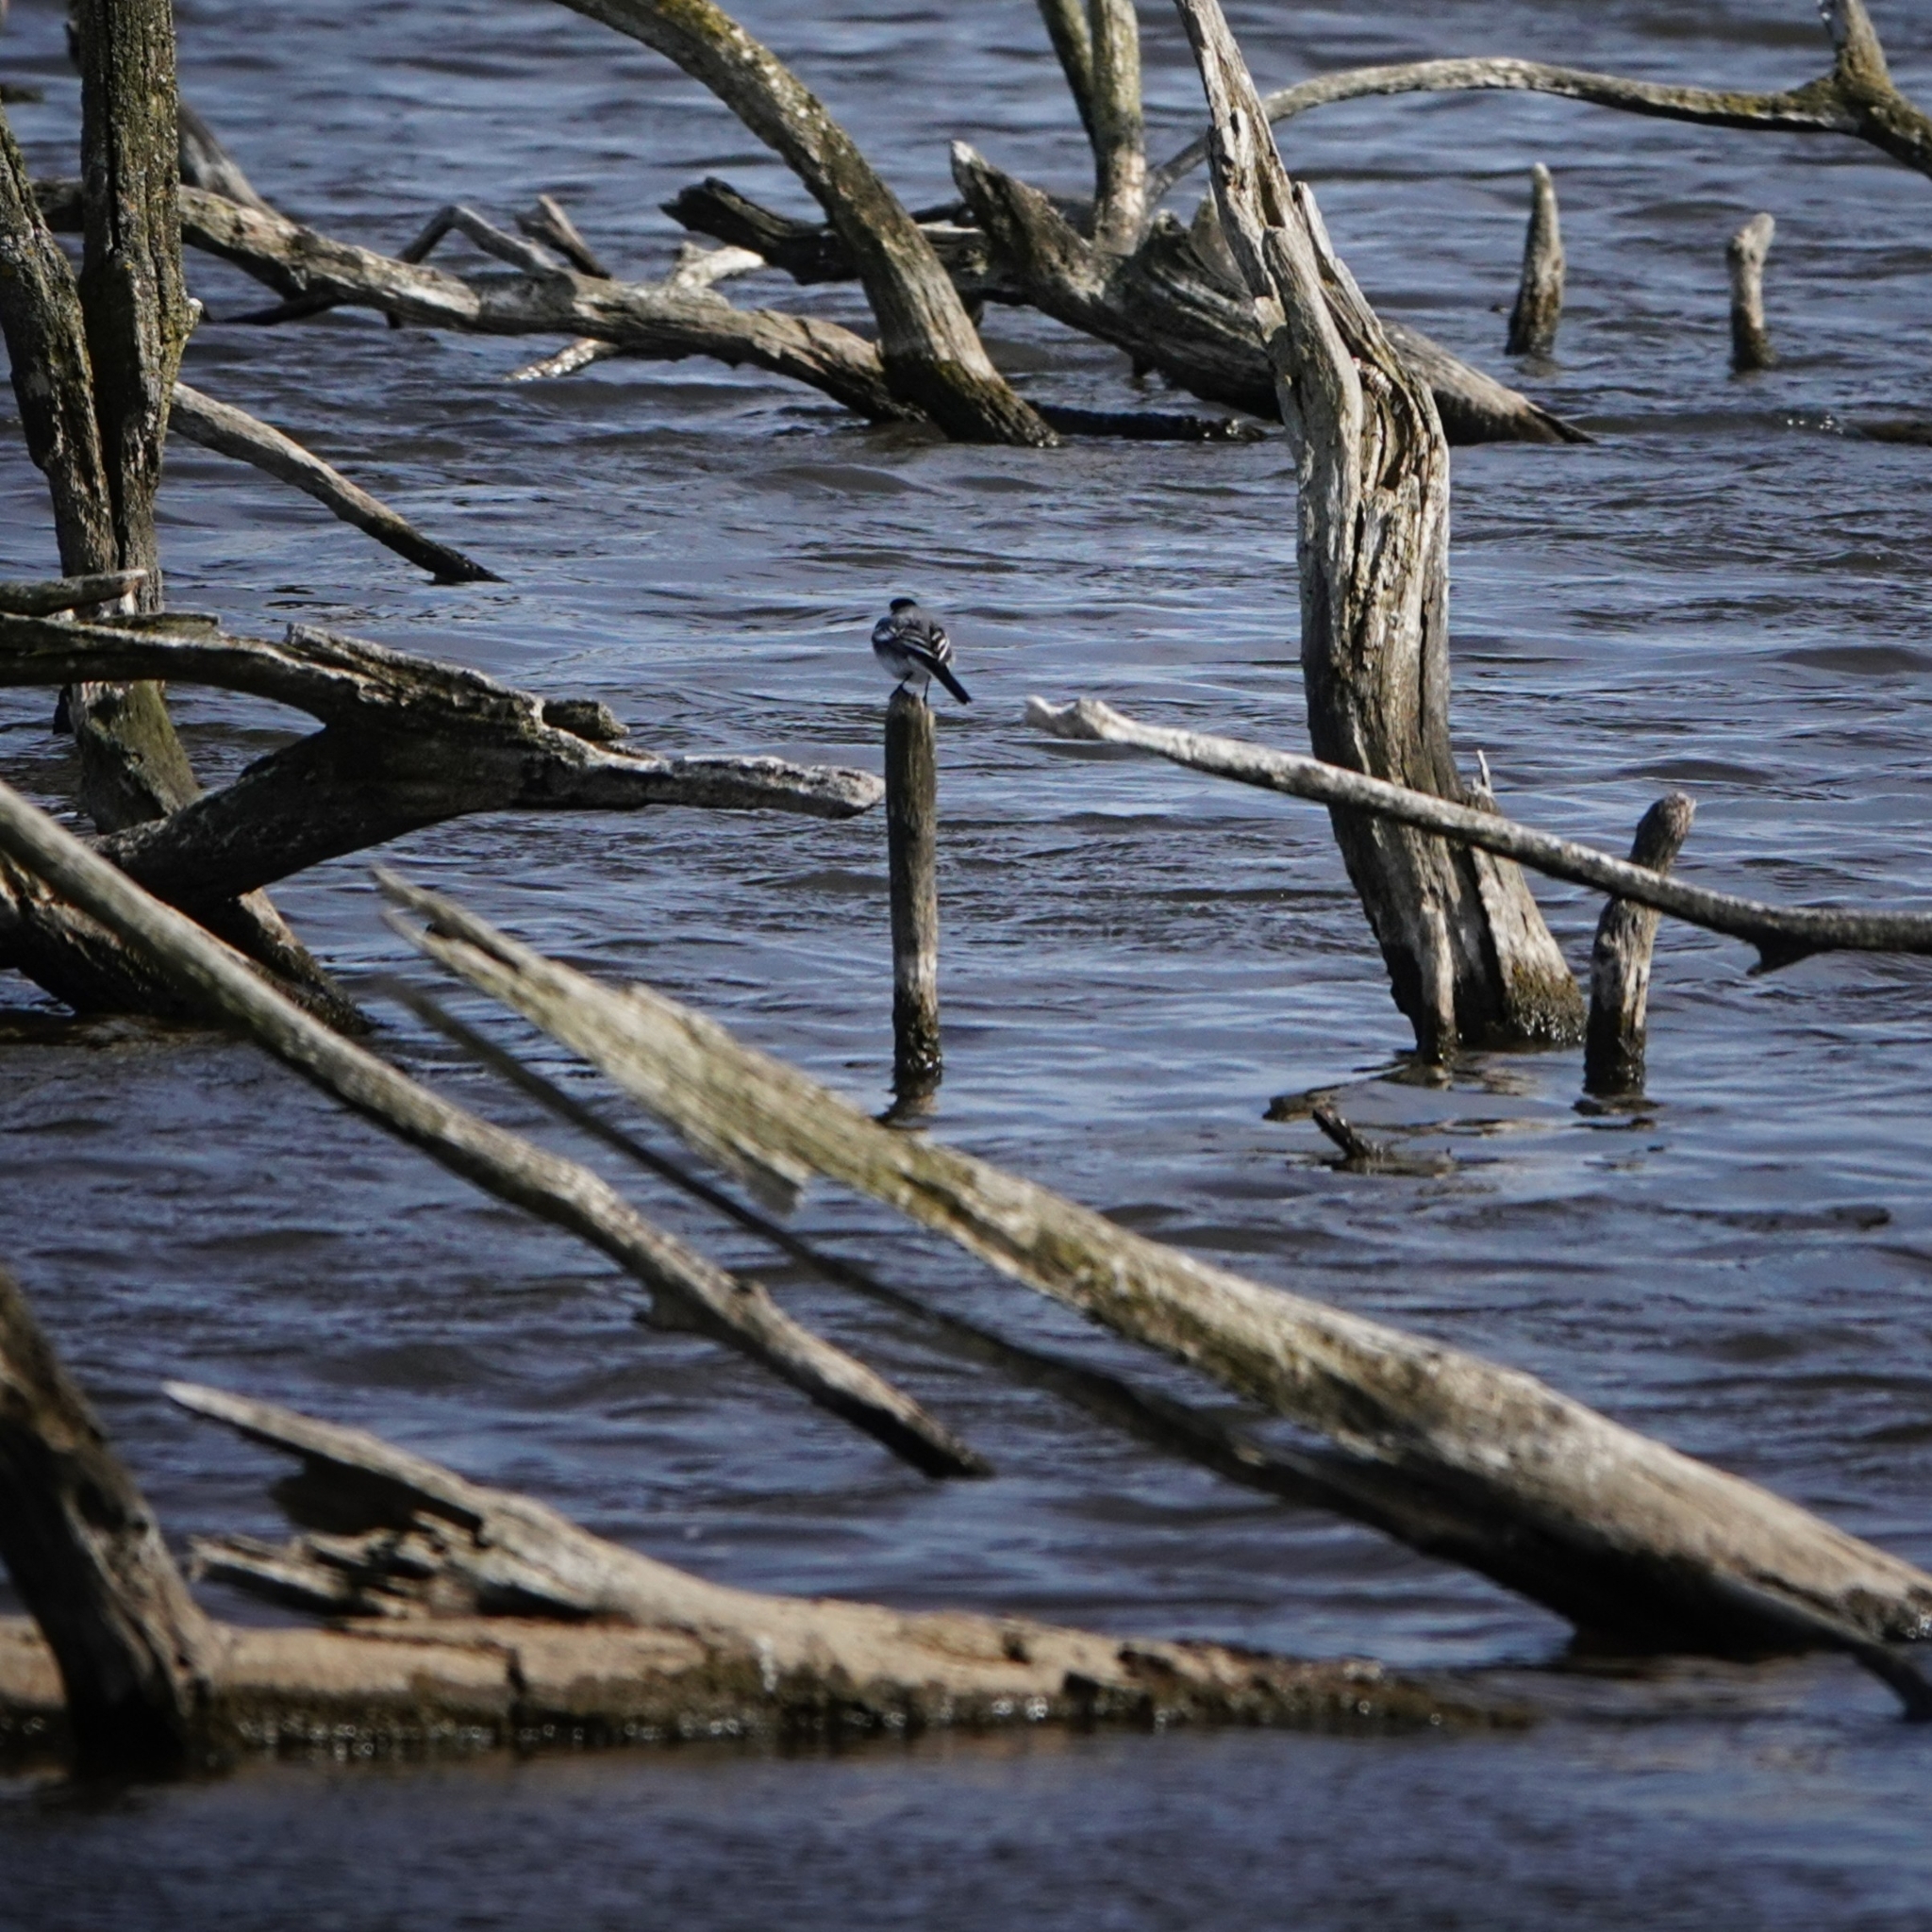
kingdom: Animalia
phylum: Chordata
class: Aves
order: Passeriformes
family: Motacillidae
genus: Motacilla
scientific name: Motacilla alba
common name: White wagtail
